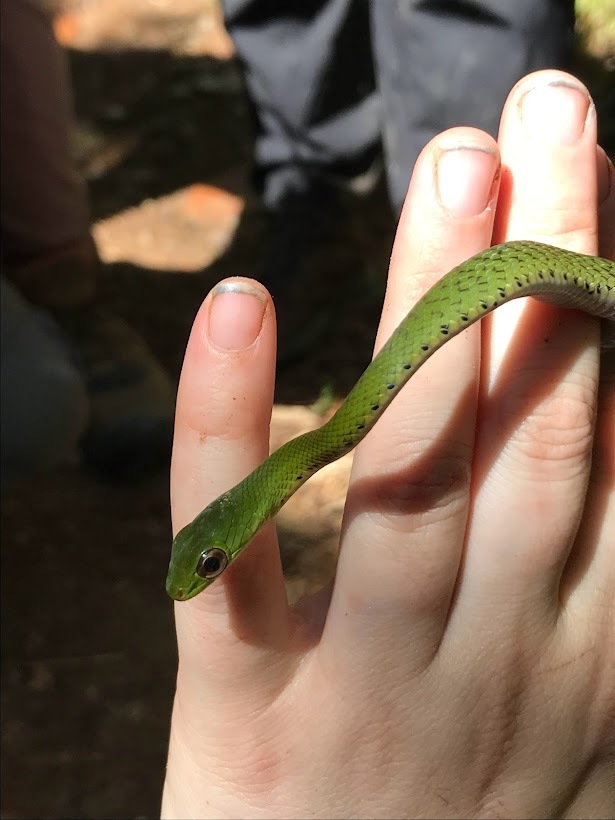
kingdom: Animalia
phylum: Chordata
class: Squamata
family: Colubridae
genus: Drymobius
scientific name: Drymobius chloroticus
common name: Green highland racer
